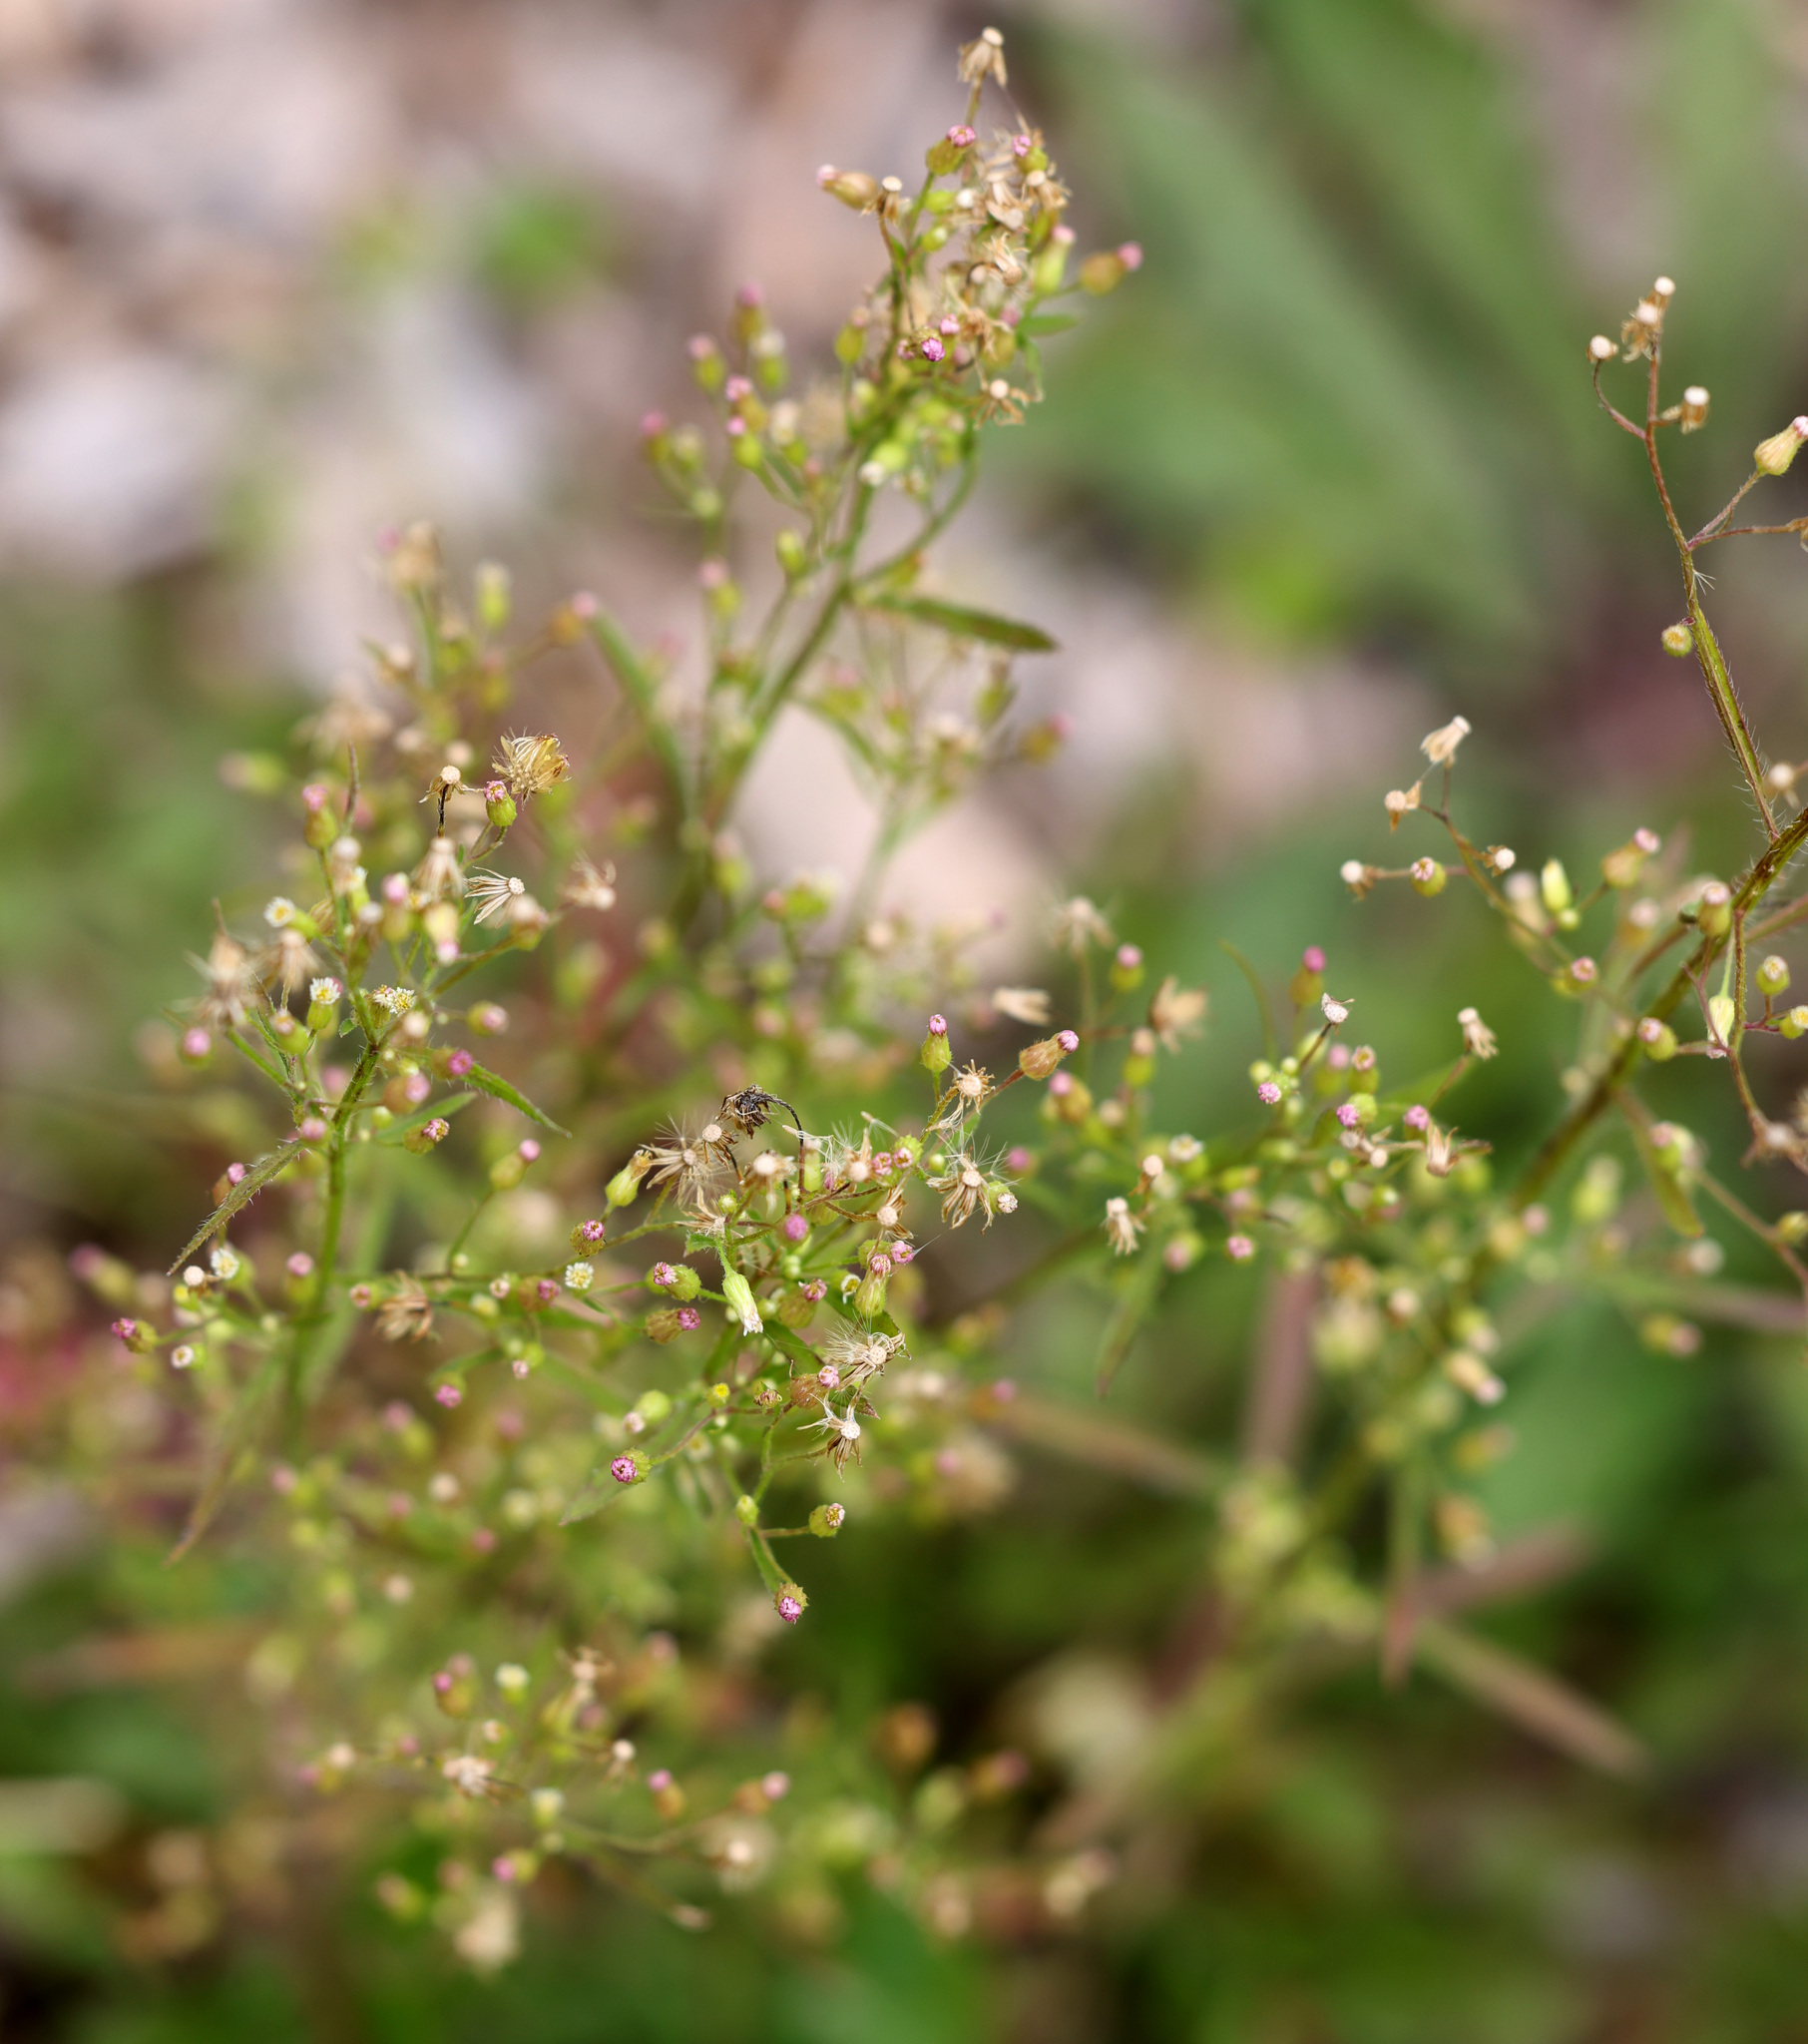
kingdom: Plantae
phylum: Tracheophyta
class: Magnoliopsida
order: Asterales
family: Asteraceae
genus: Erigeron
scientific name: Erigeron canadensis
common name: Canadian fleabane
